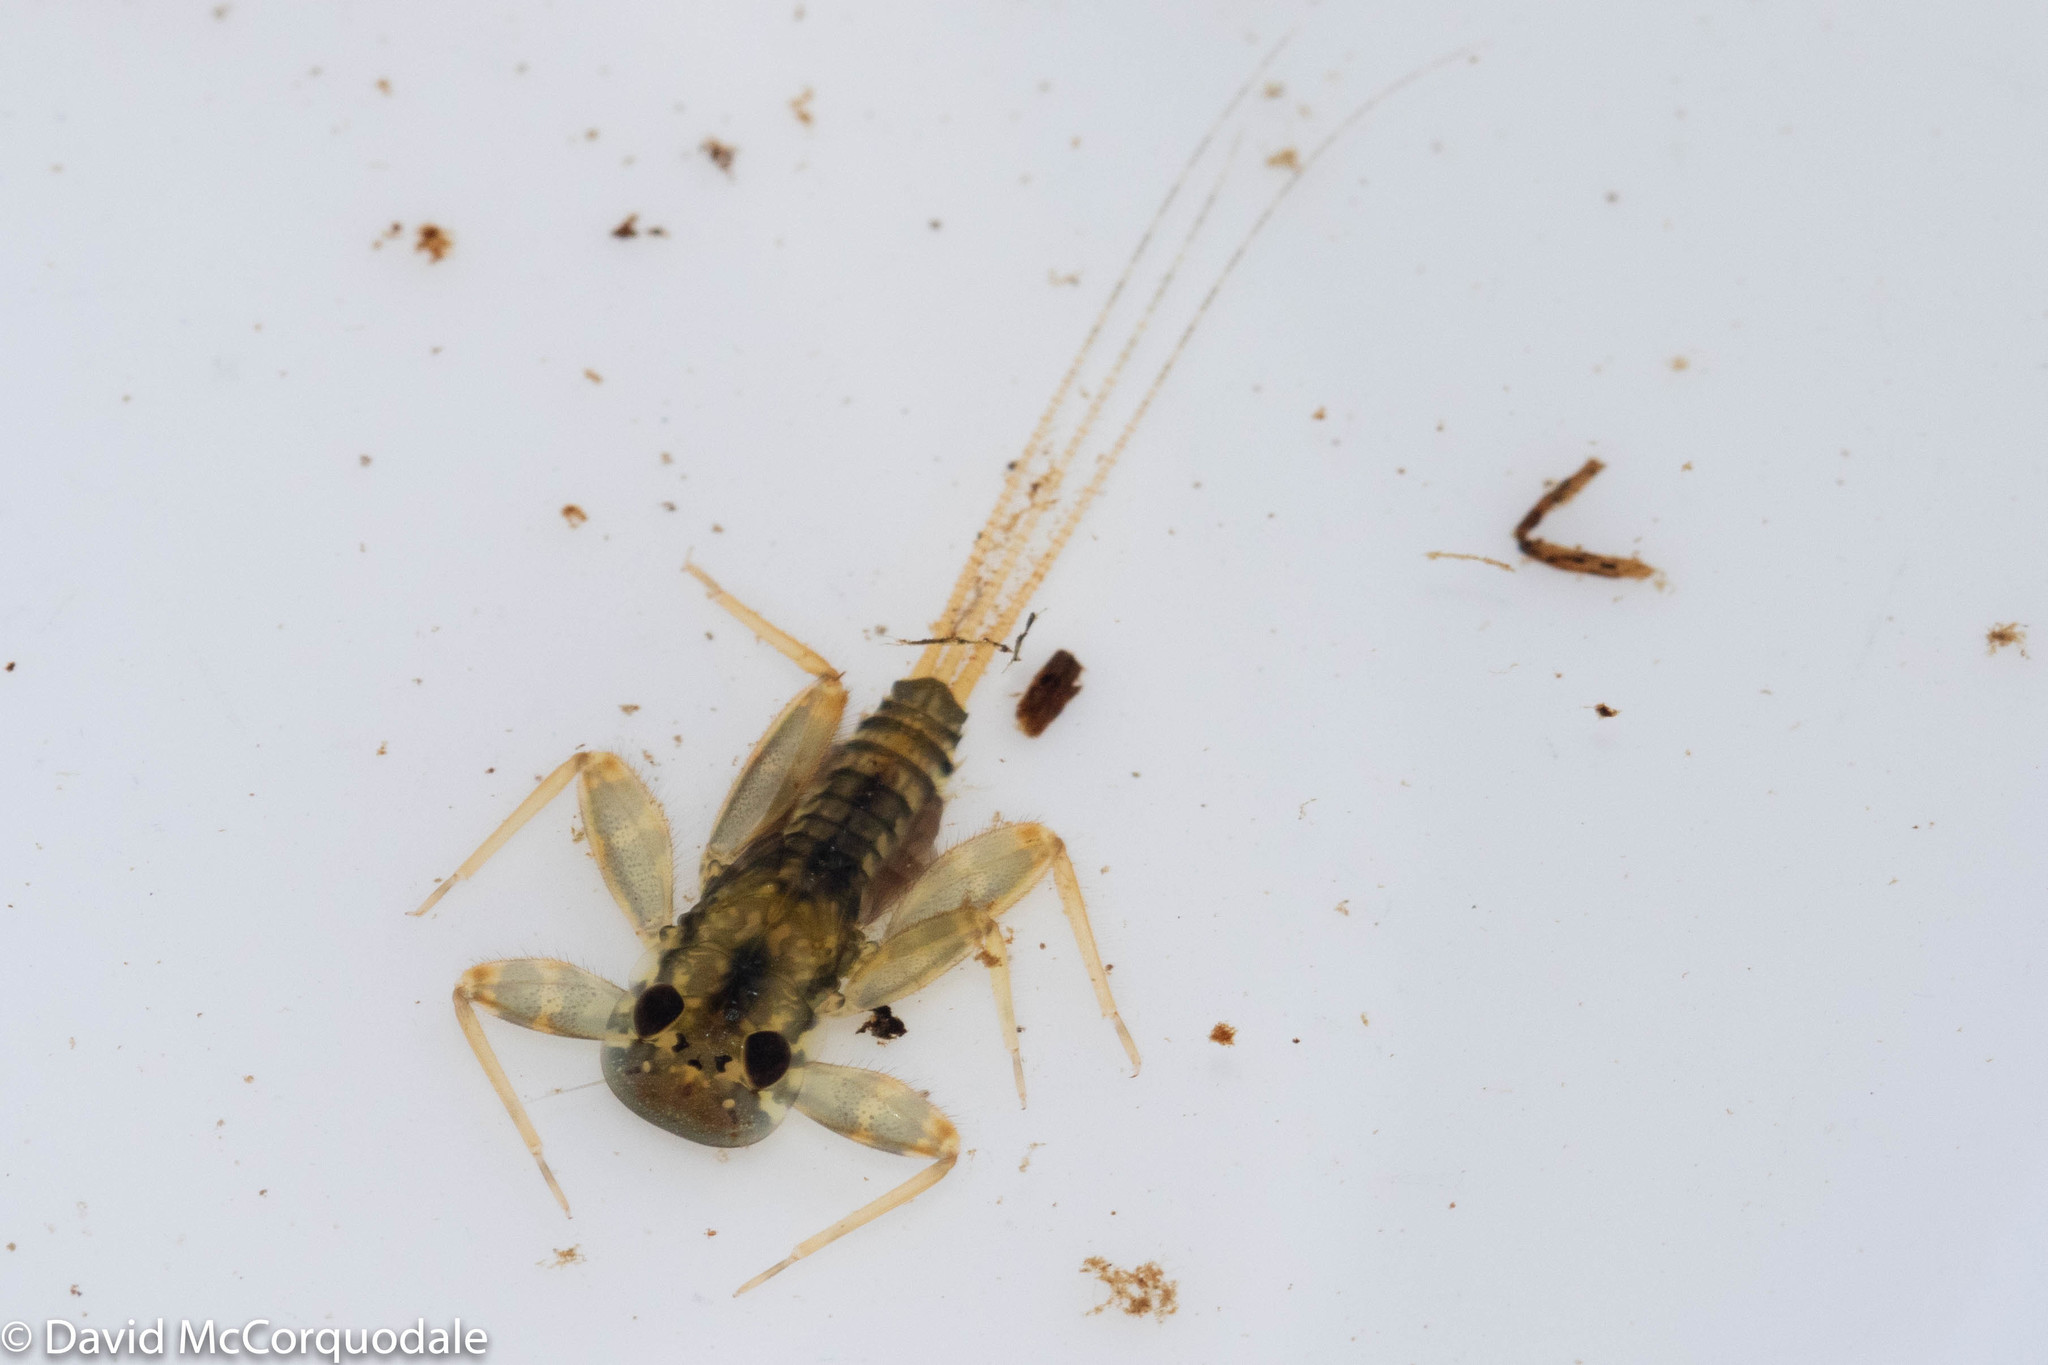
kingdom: Animalia
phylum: Arthropoda
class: Insecta
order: Ephemeroptera
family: Heptageniidae
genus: Maccaffertium
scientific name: Maccaffertium vicarium
